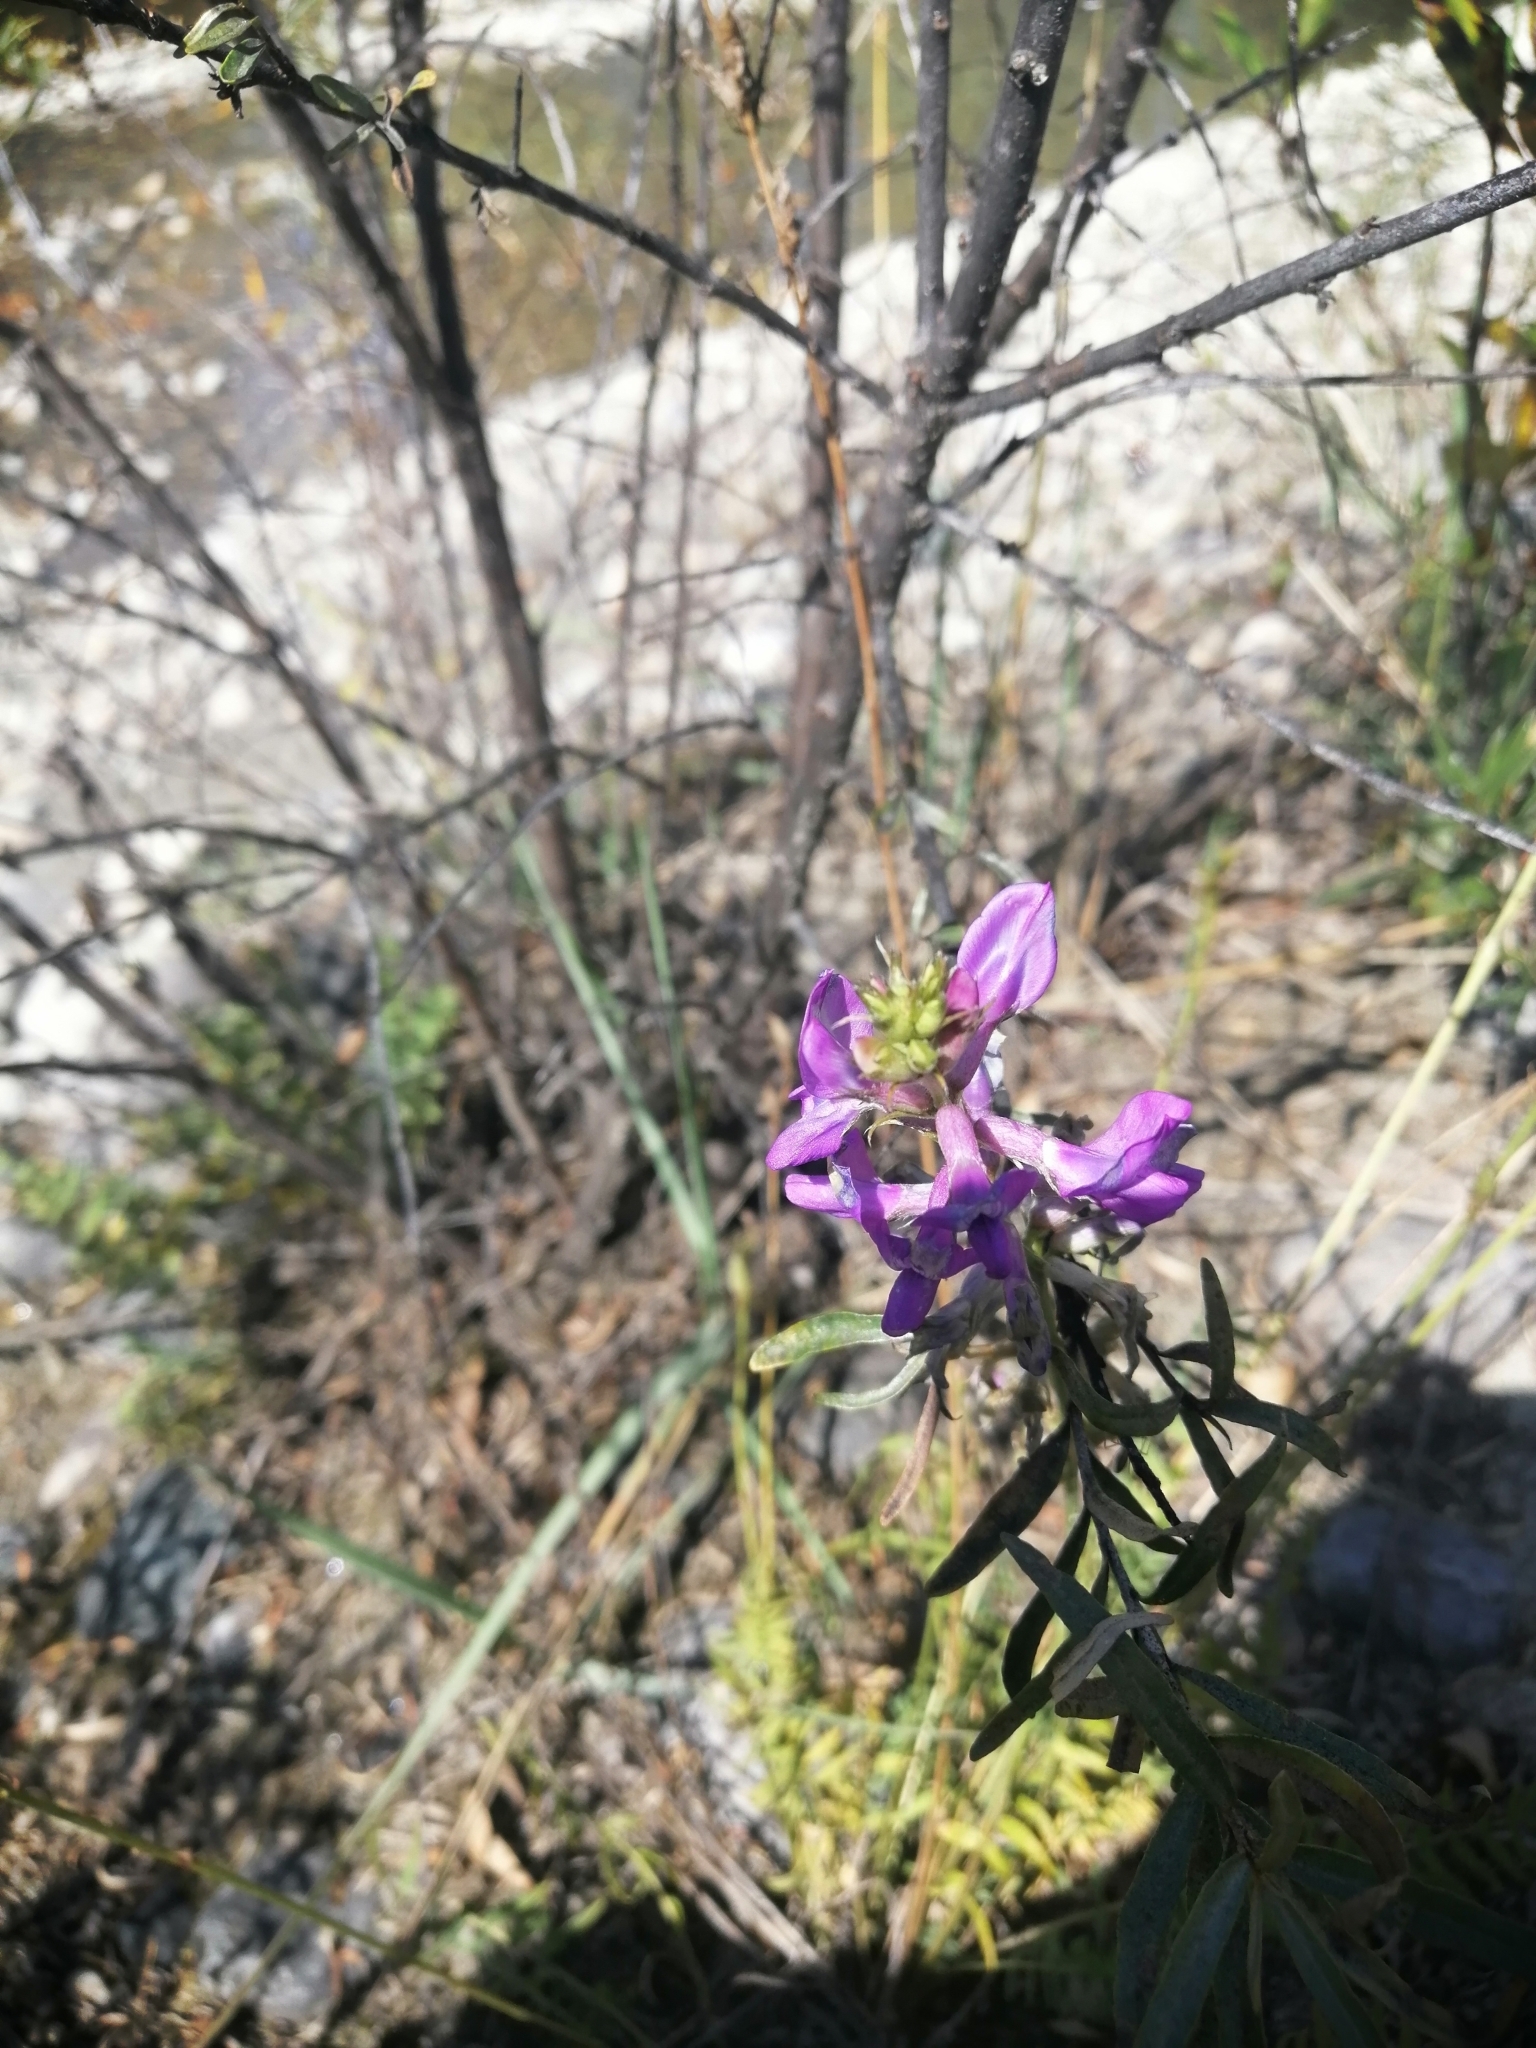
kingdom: Plantae
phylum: Tracheophyta
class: Magnoliopsida
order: Fabales
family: Fabaceae
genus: Oxytropis
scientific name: Oxytropis coerulea
